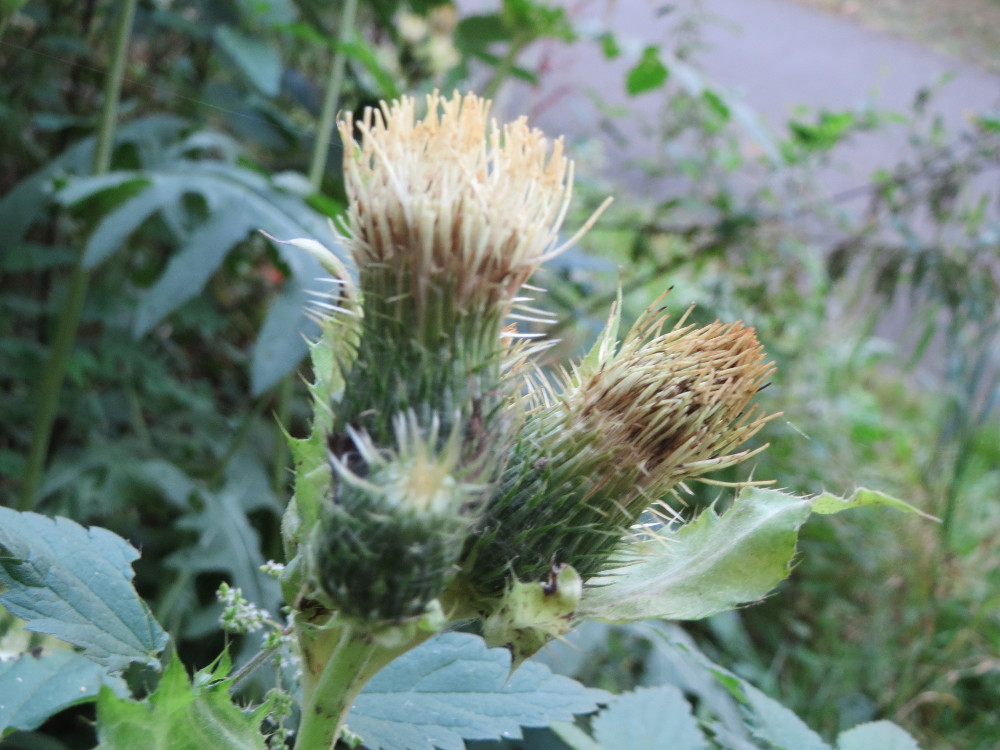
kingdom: Plantae
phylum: Tracheophyta
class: Magnoliopsida
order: Asterales
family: Asteraceae
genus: Cirsium
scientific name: Cirsium oleraceum
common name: Cabbage thistle
